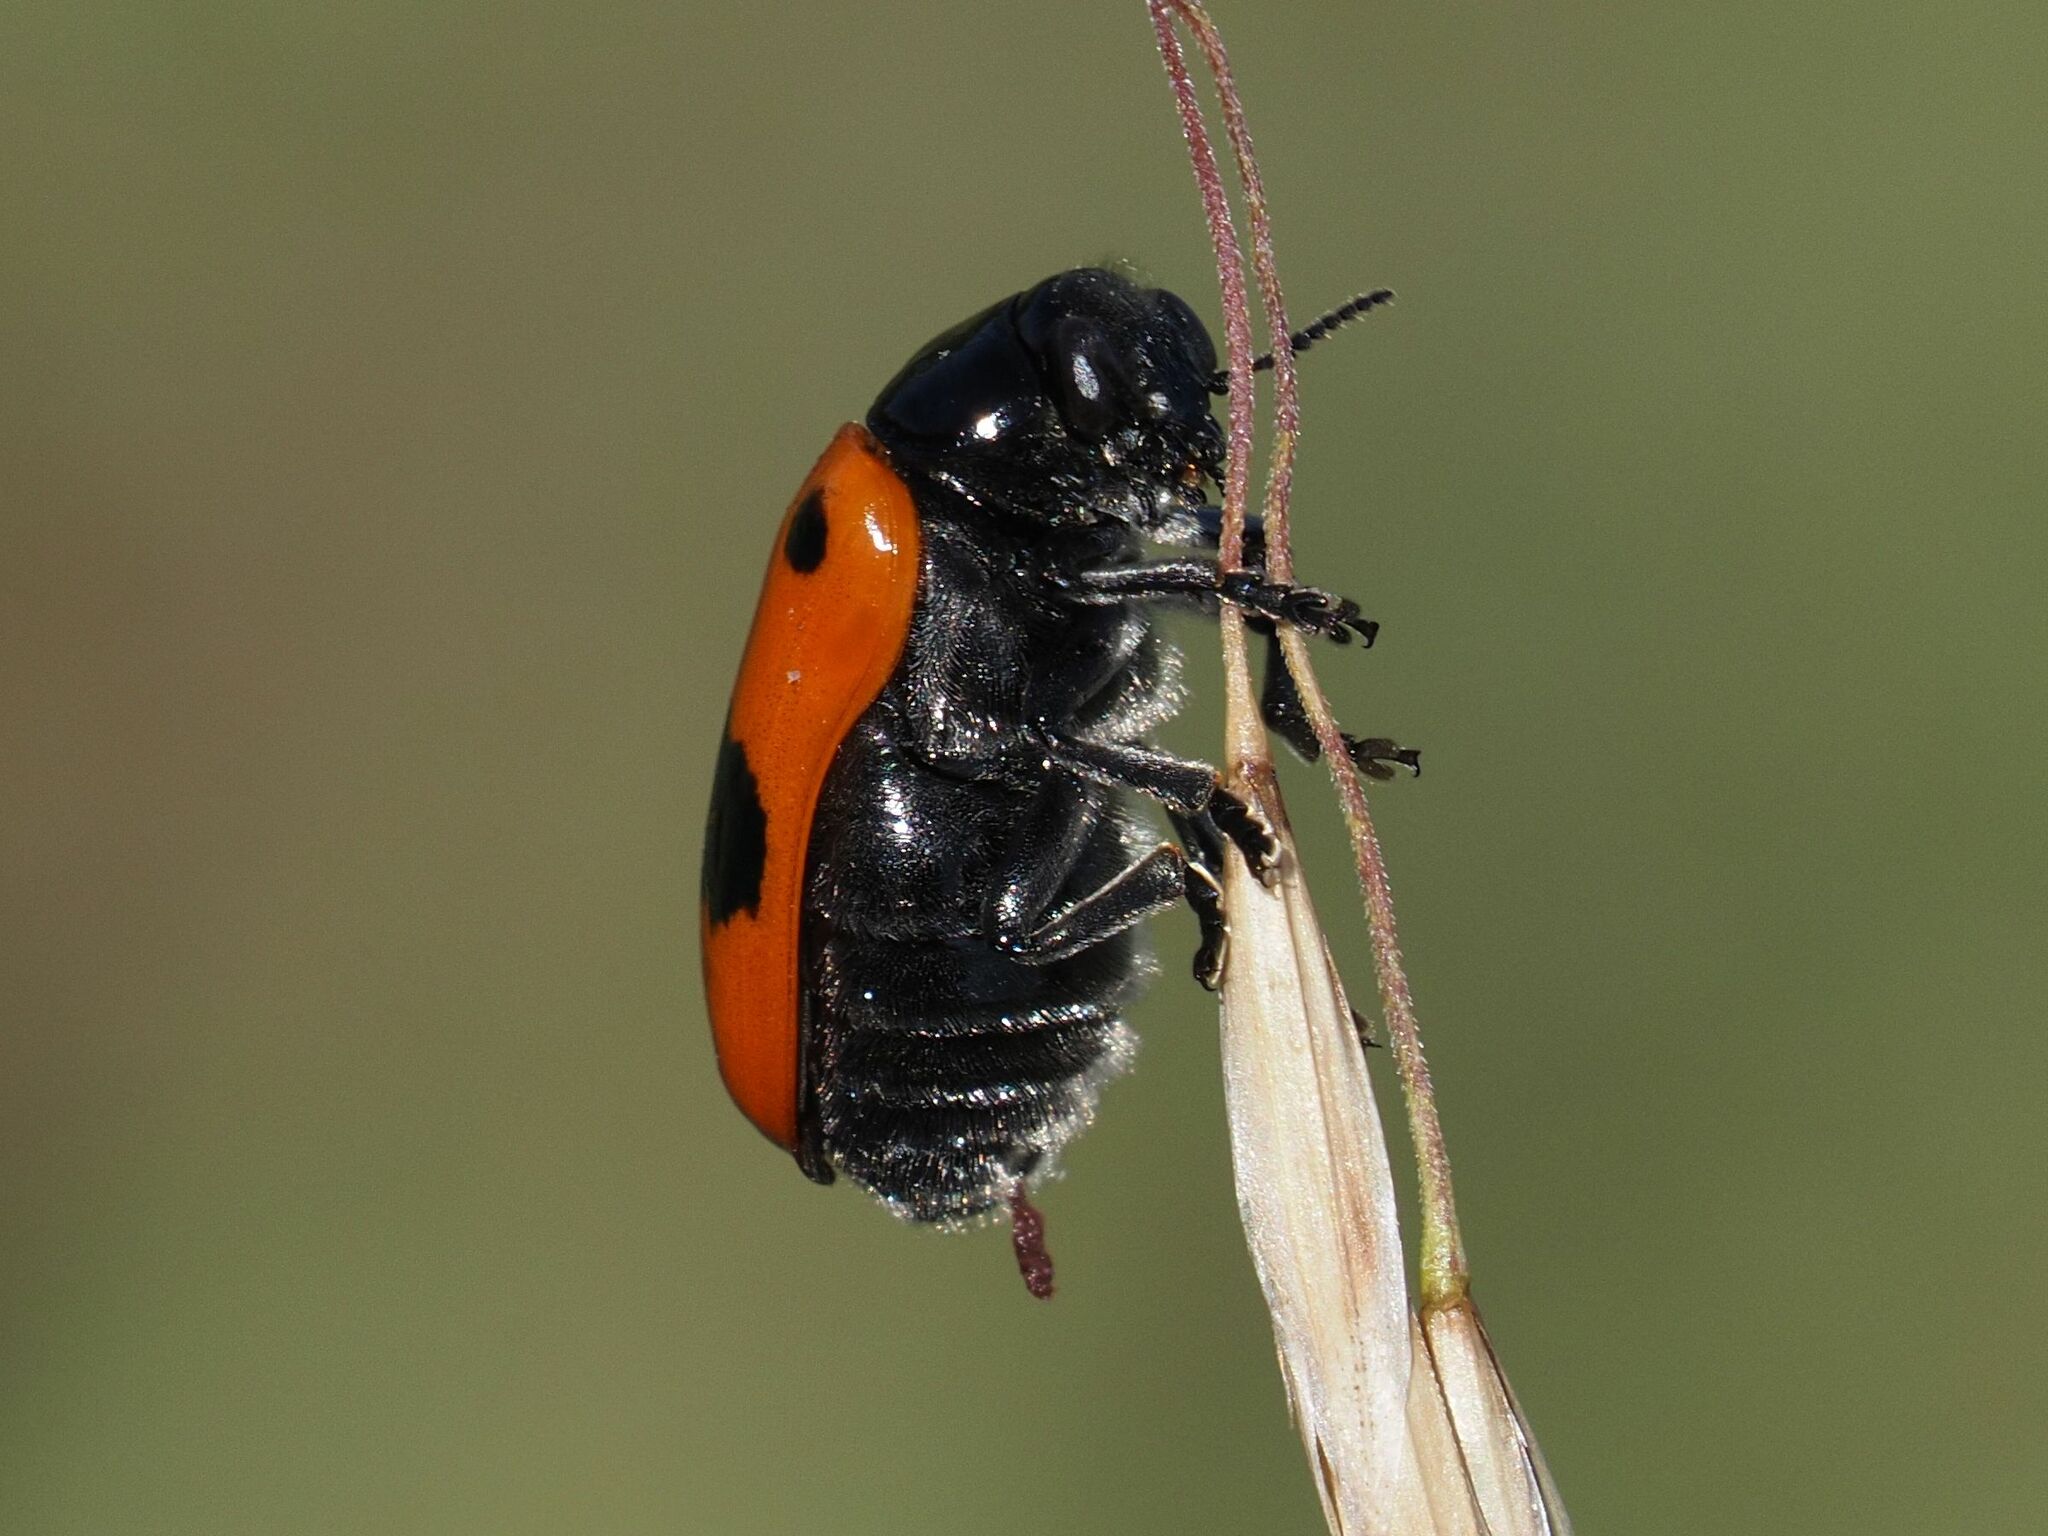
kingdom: Animalia
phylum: Arthropoda
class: Insecta
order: Coleoptera
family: Chrysomelidae
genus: Clytra
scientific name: Clytra laeviuscula
